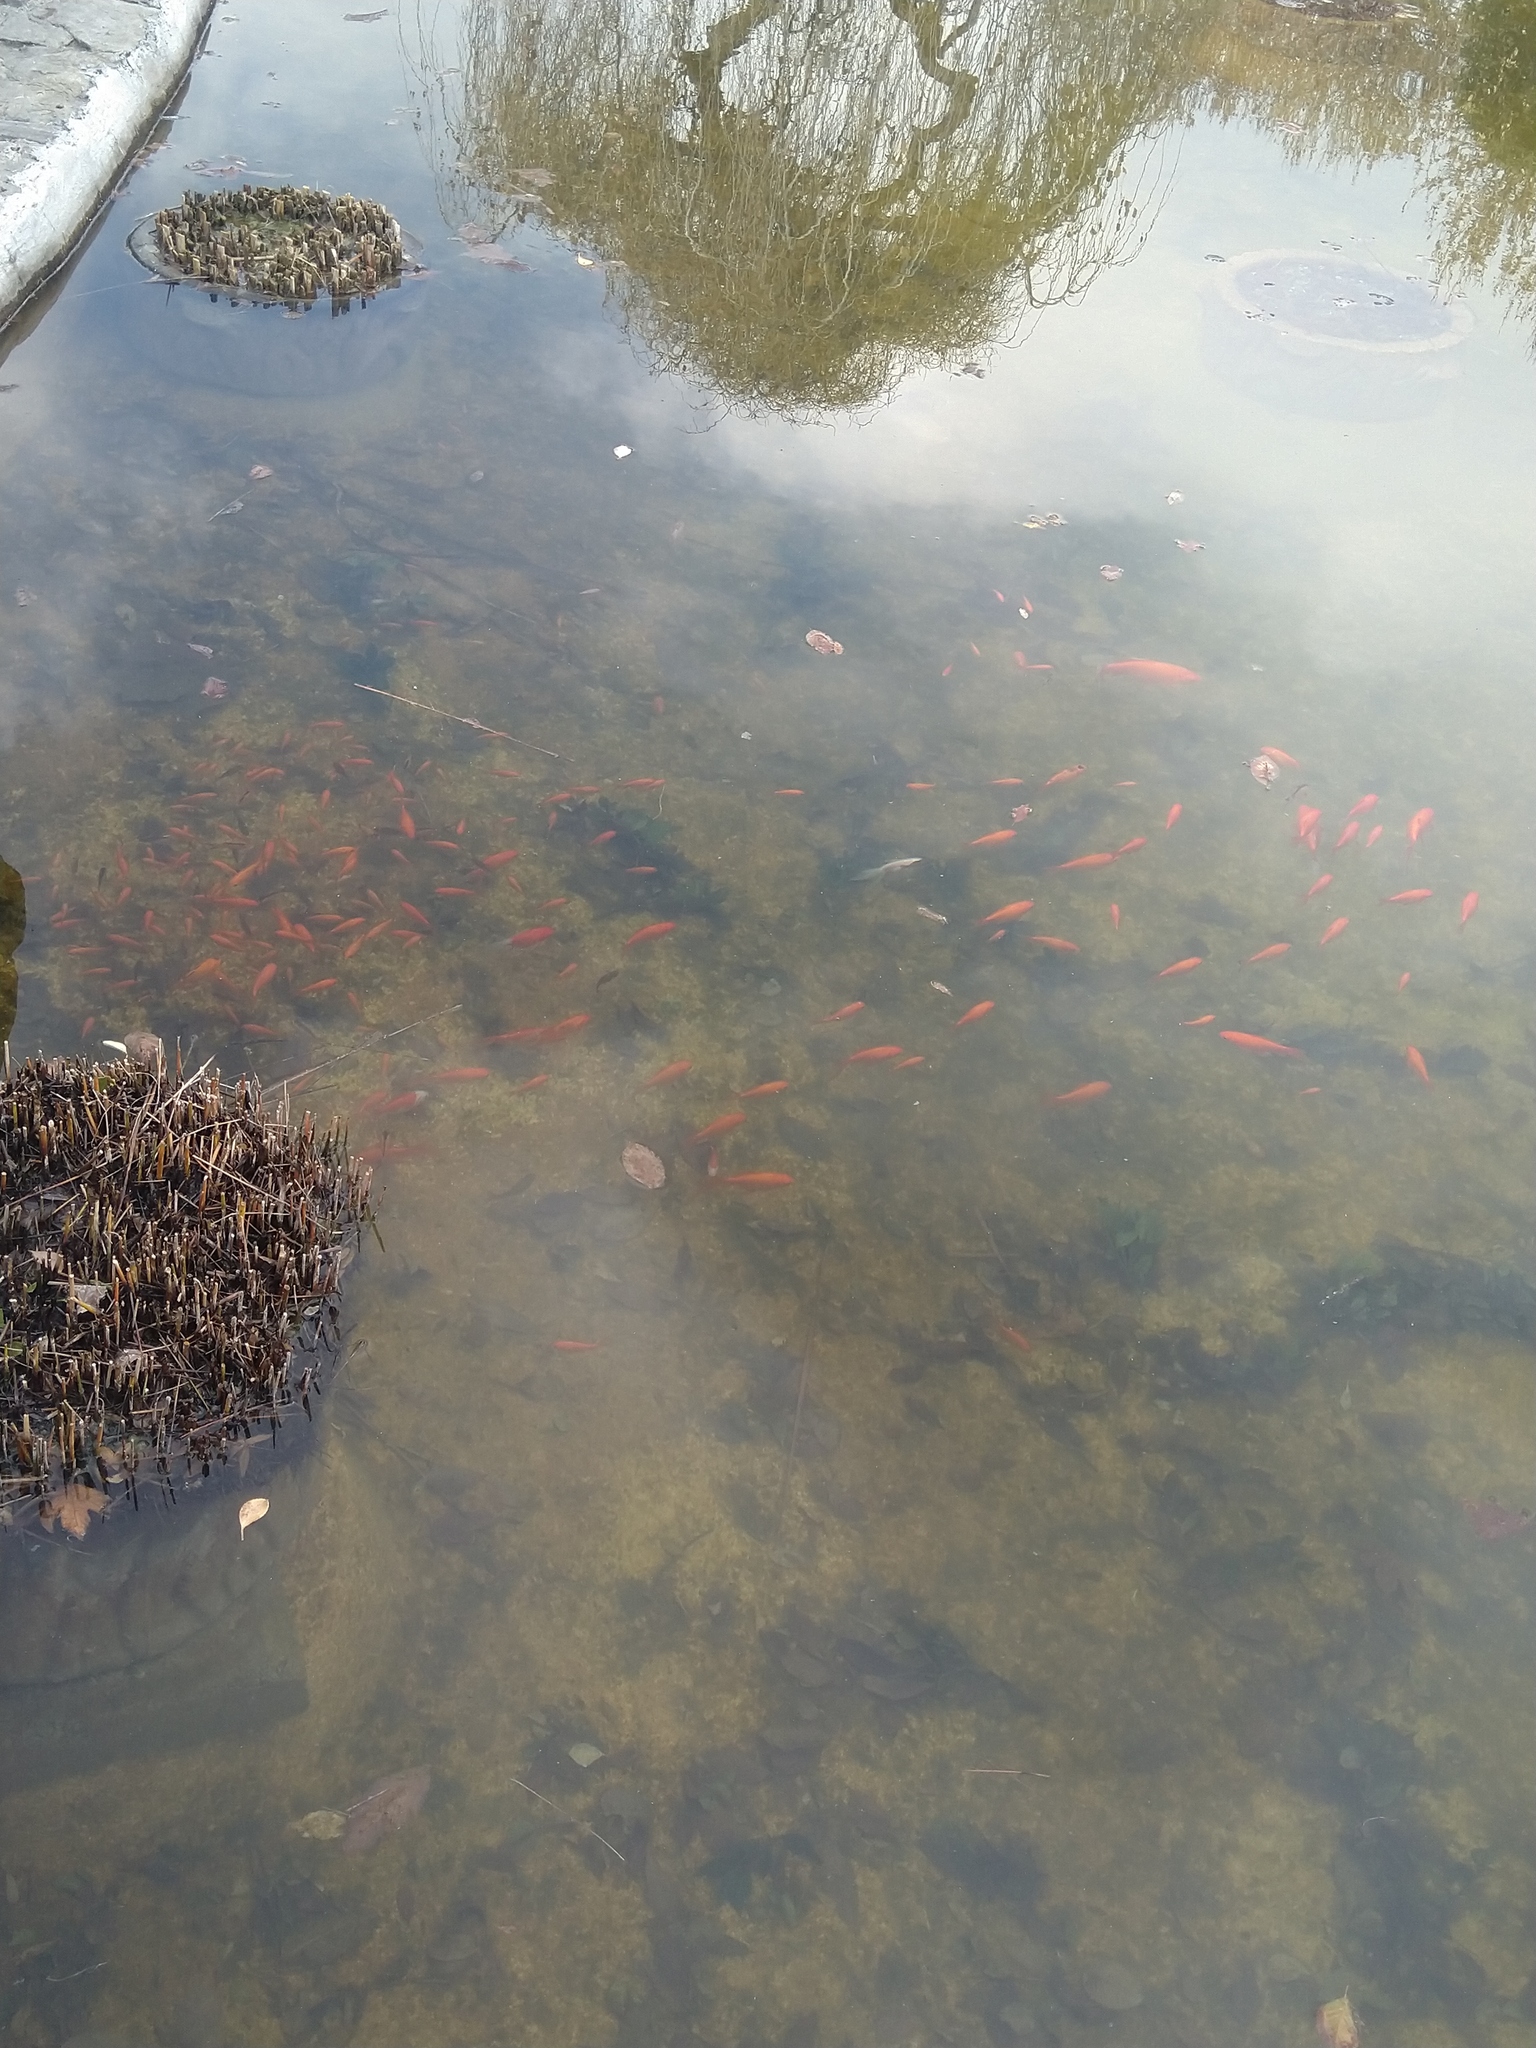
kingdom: Animalia
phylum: Chordata
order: Cypriniformes
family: Cyprinidae
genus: Carassius
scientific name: Carassius auratus
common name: Goldfish
